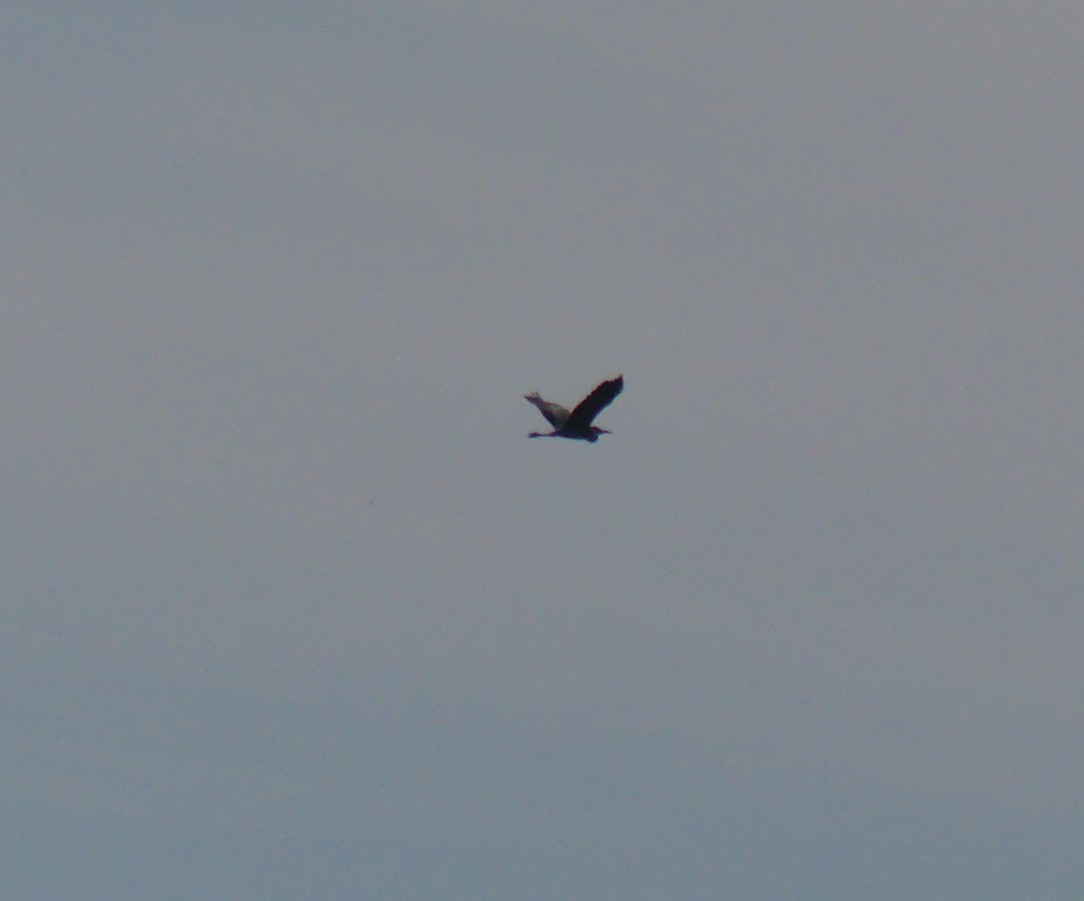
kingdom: Animalia
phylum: Chordata
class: Aves
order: Pelecaniformes
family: Ardeidae
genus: Ardea
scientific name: Ardea cinerea
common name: Grey heron
